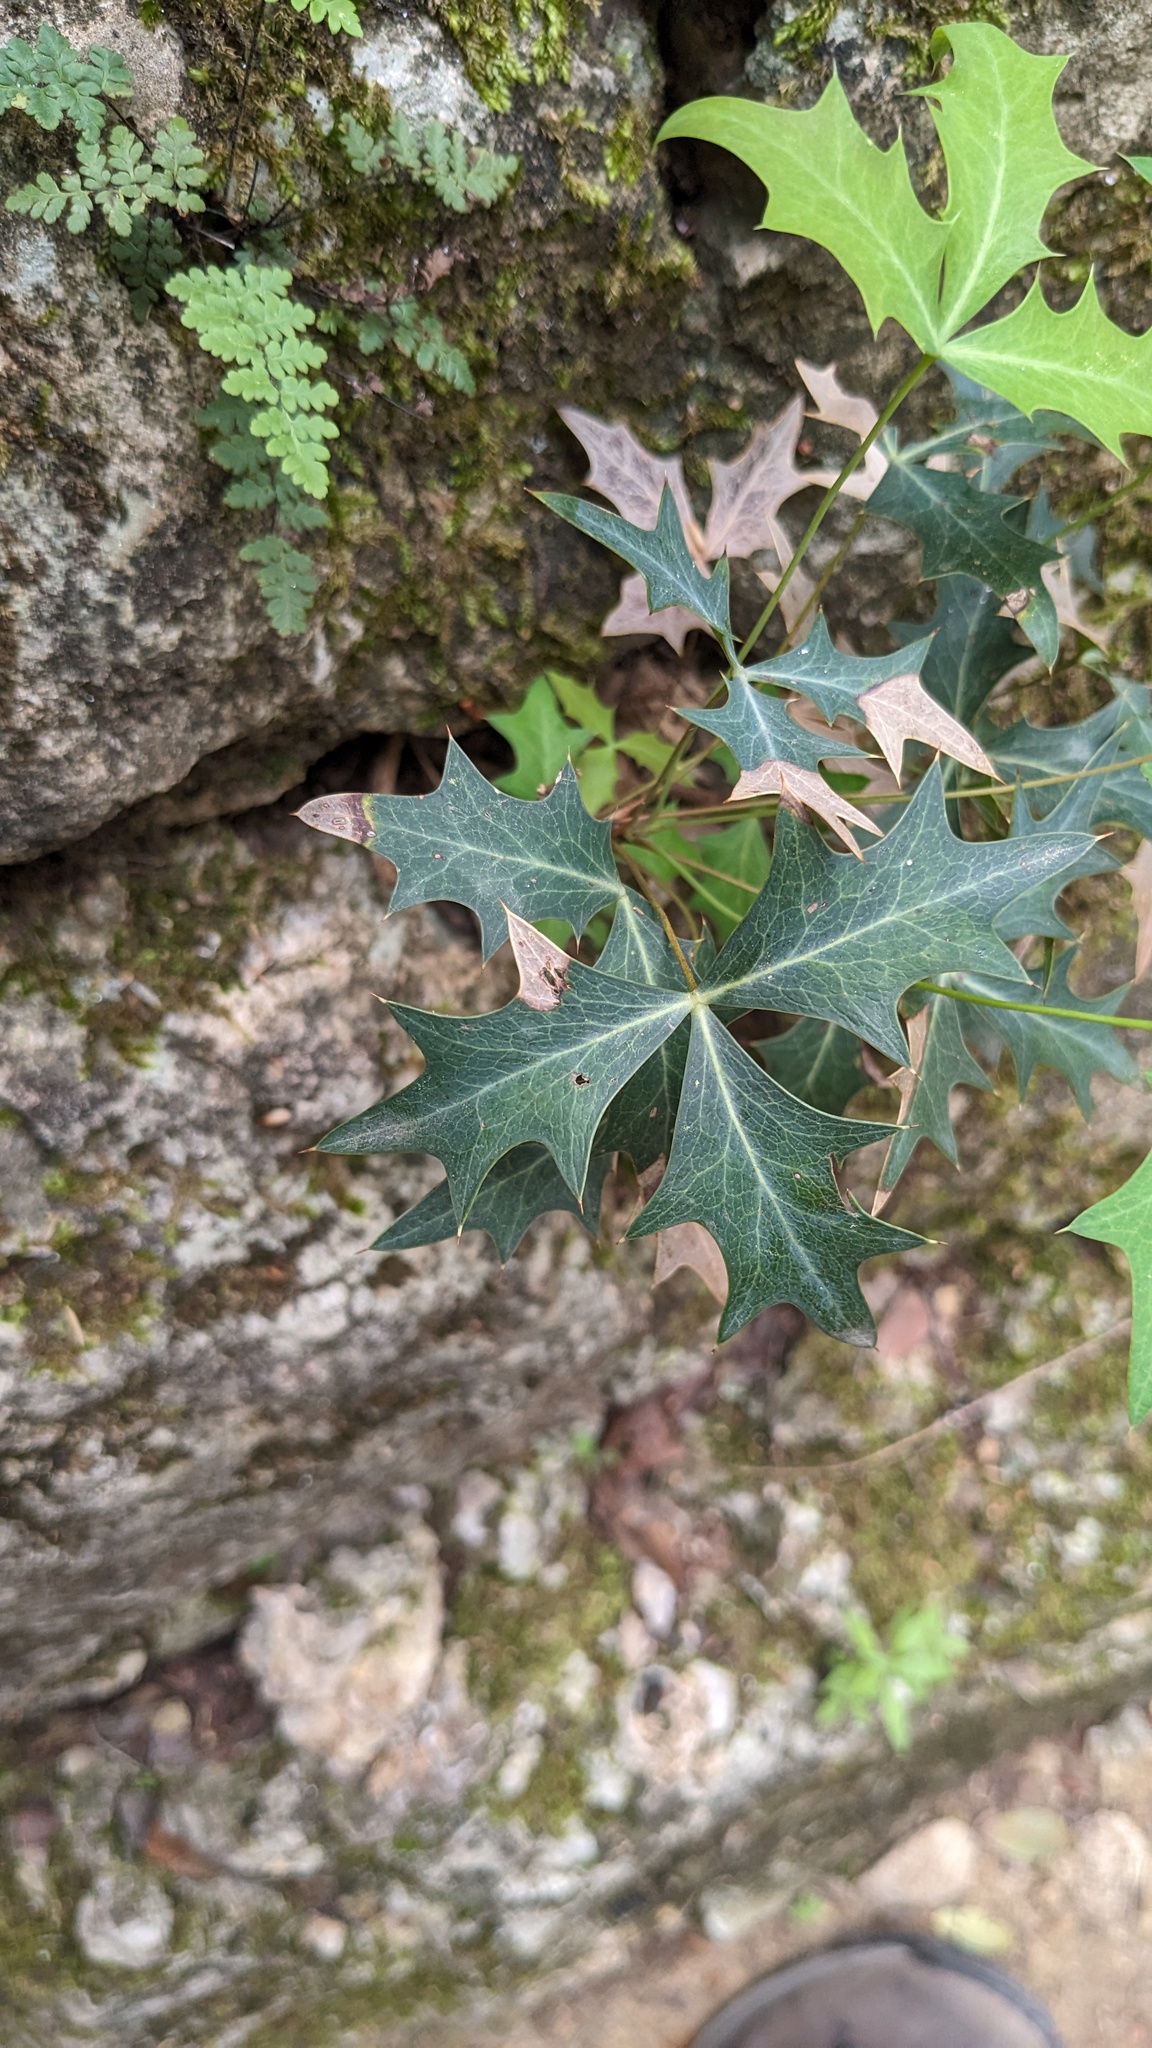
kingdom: Plantae
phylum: Tracheophyta
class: Magnoliopsida
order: Ranunculales
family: Berberidaceae
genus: Alloberberis
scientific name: Alloberberis trifoliolata
